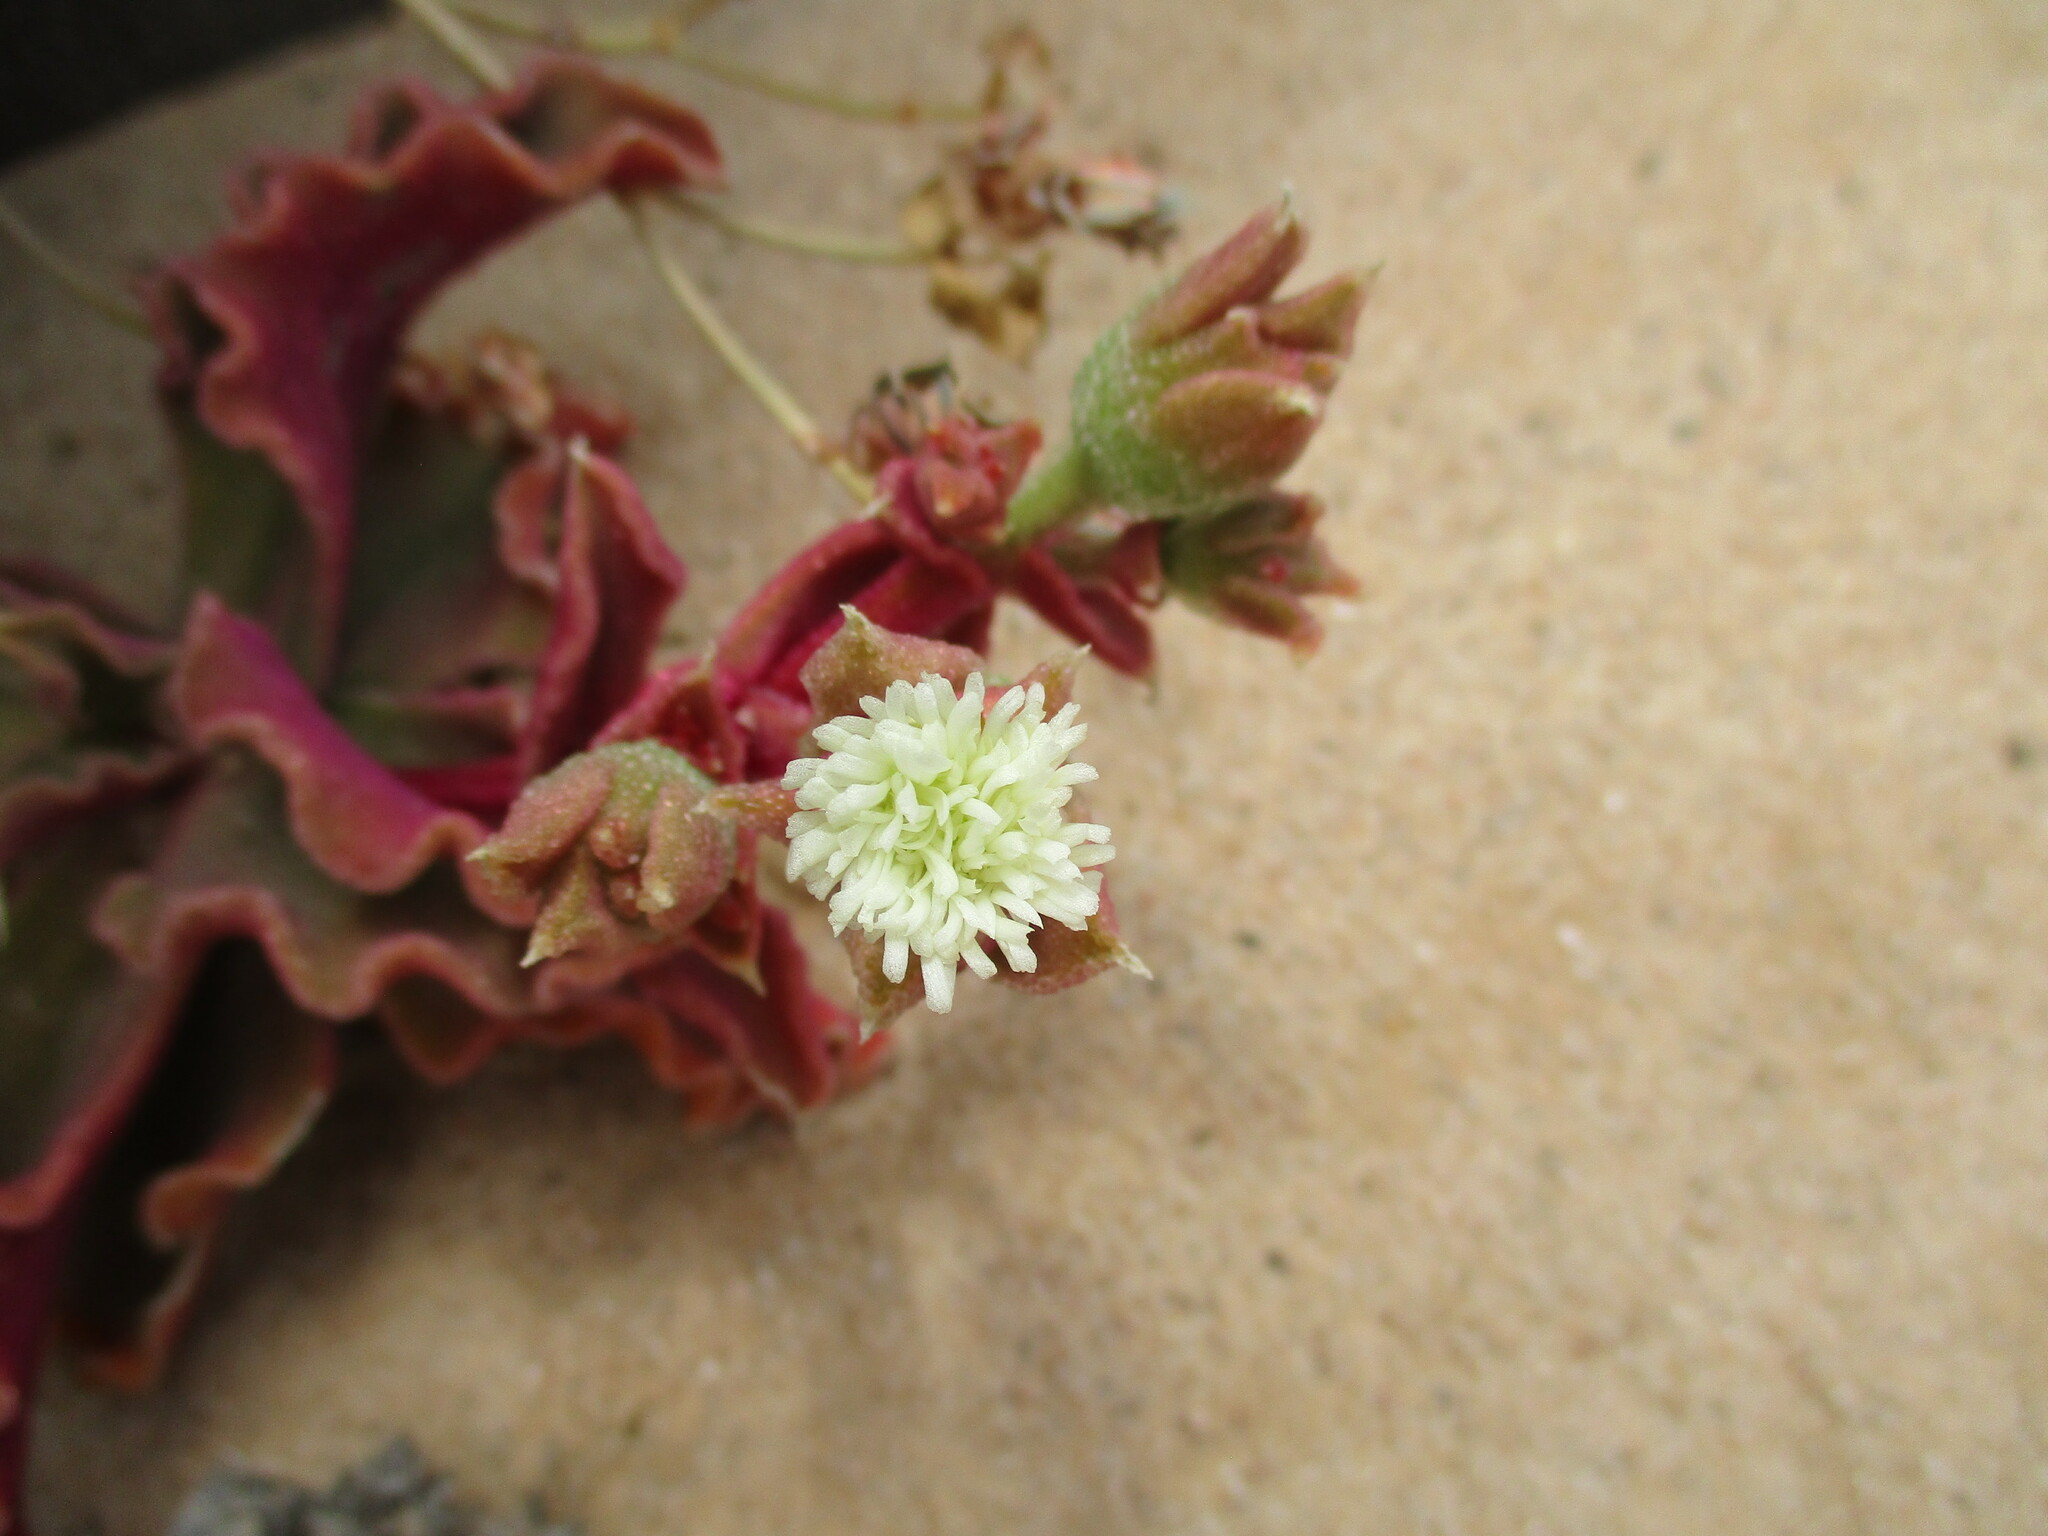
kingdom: Plantae
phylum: Tracheophyta
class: Magnoliopsida
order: Caryophyllales
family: Aizoaceae
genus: Mesembryanthemum
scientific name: Mesembryanthemum guerichianum
